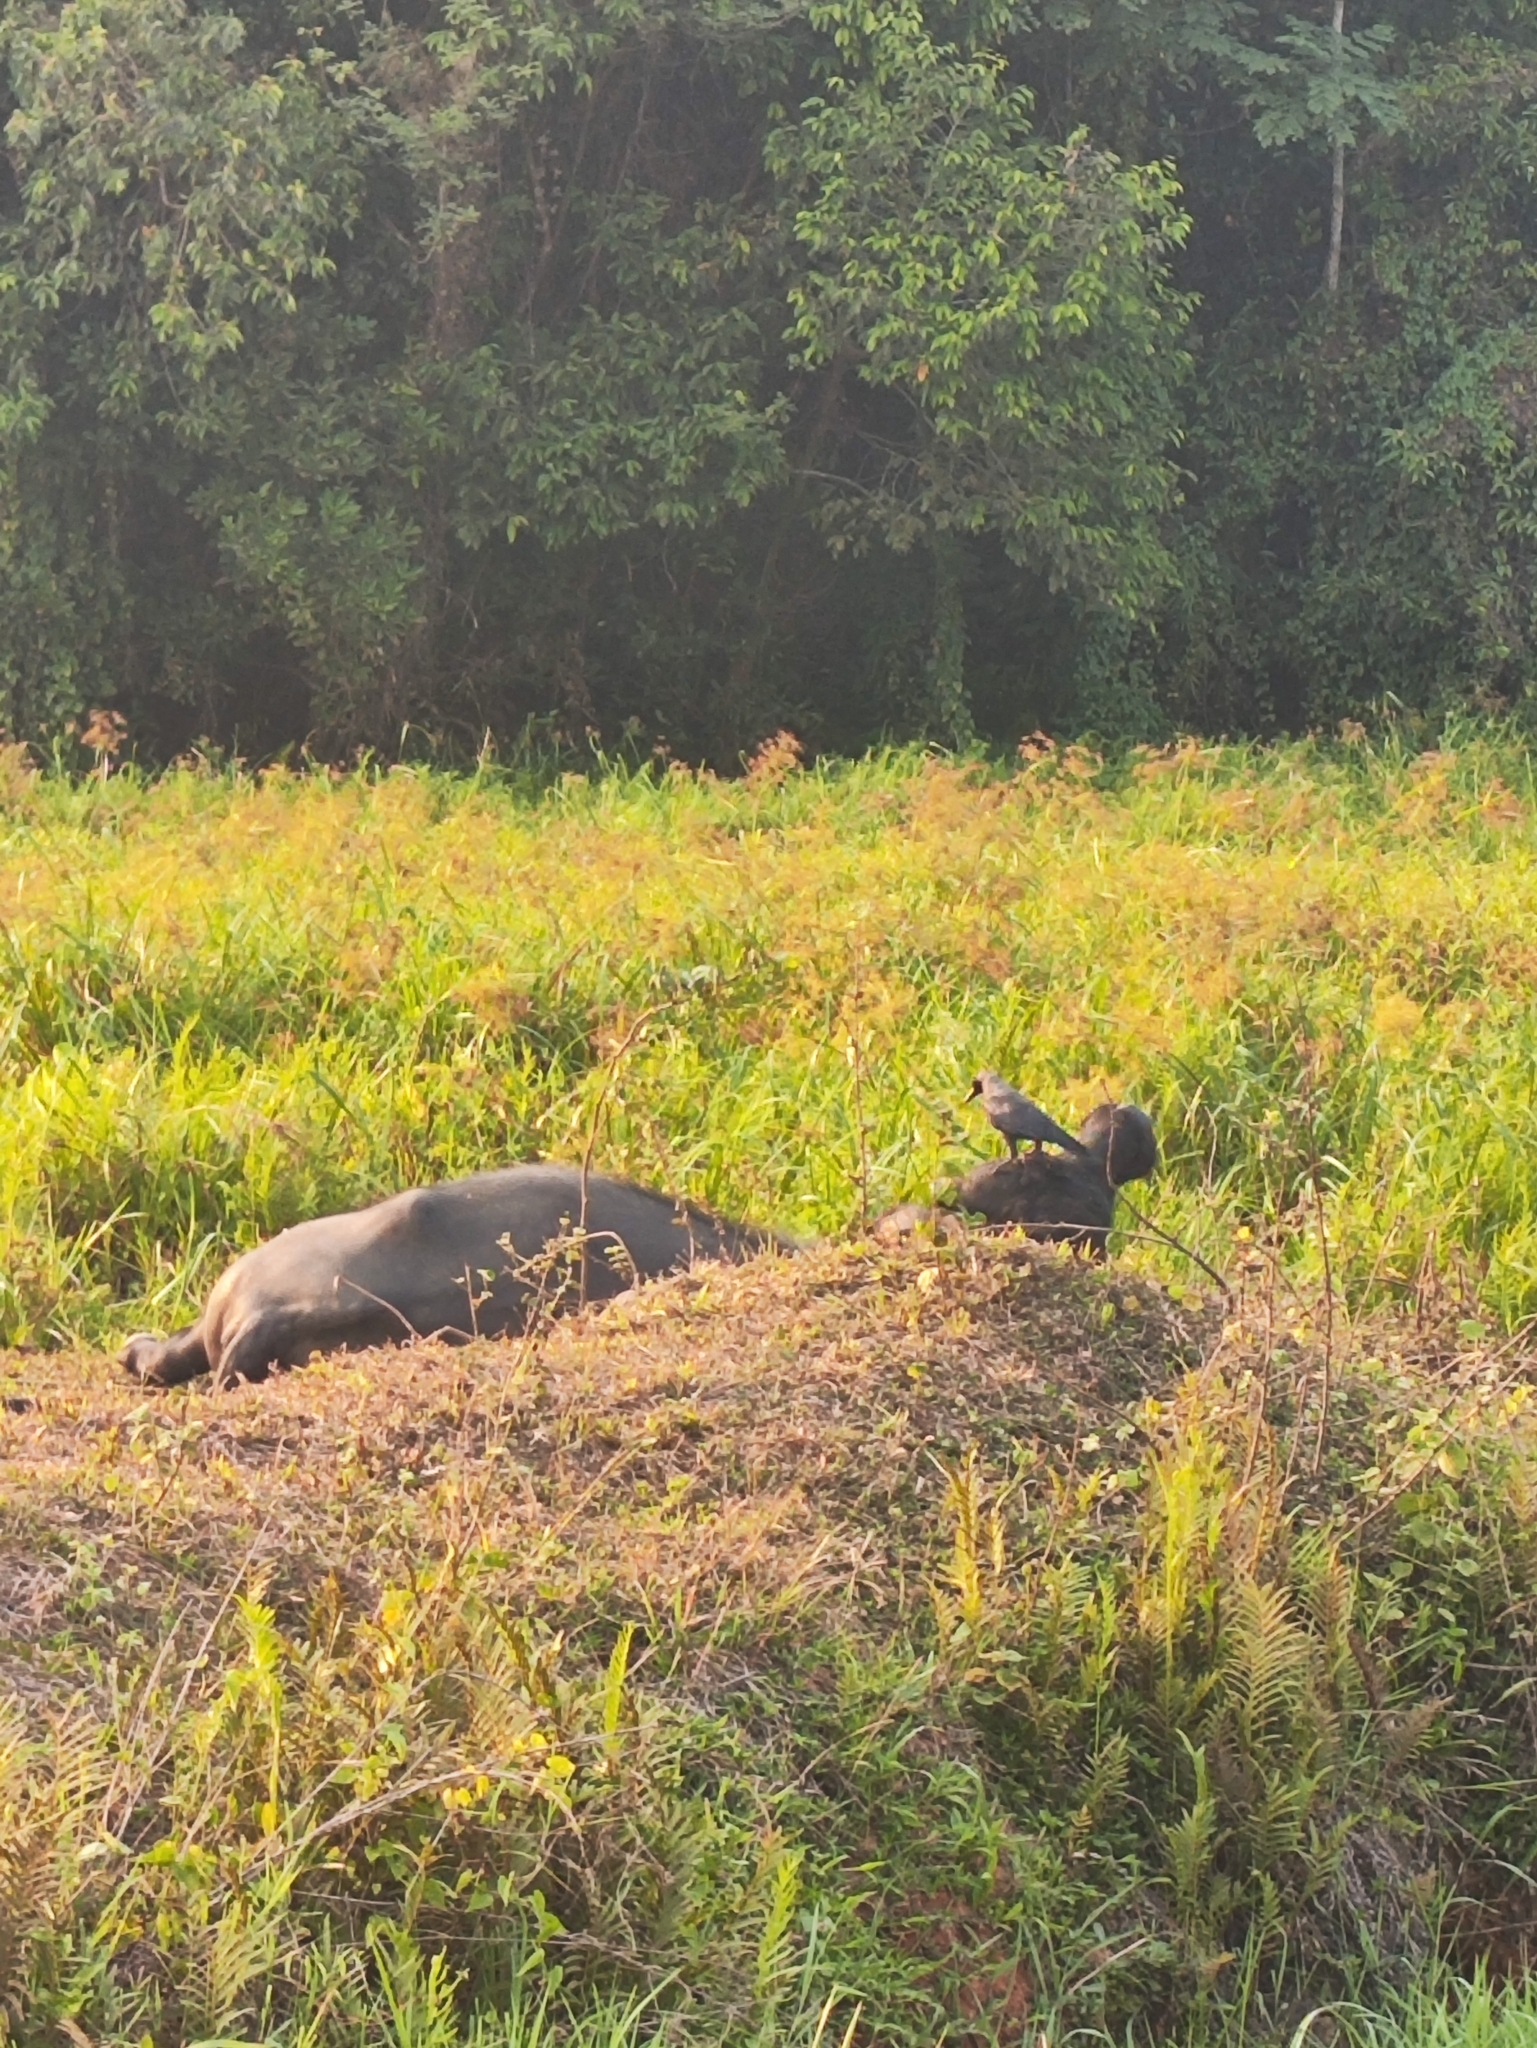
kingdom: Animalia
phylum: Chordata
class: Aves
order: Passeriformes
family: Corvidae
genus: Corvus
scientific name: Corvus splendens
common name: House crow
